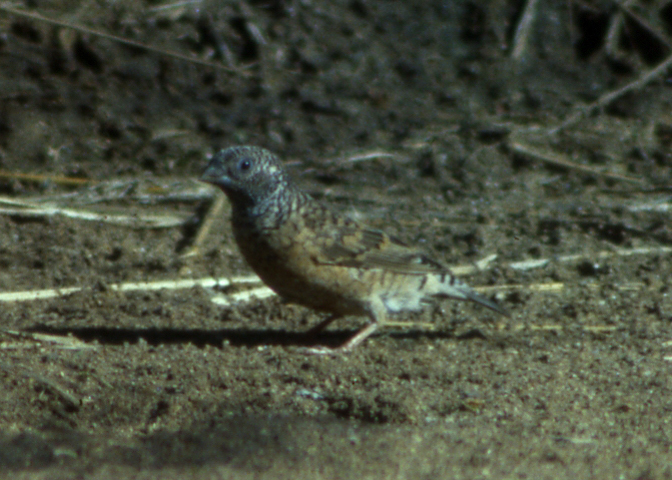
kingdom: Animalia
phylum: Chordata
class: Aves
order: Passeriformes
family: Estrildidae
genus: Amadina
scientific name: Amadina fasciata
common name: Cut-throat finch
